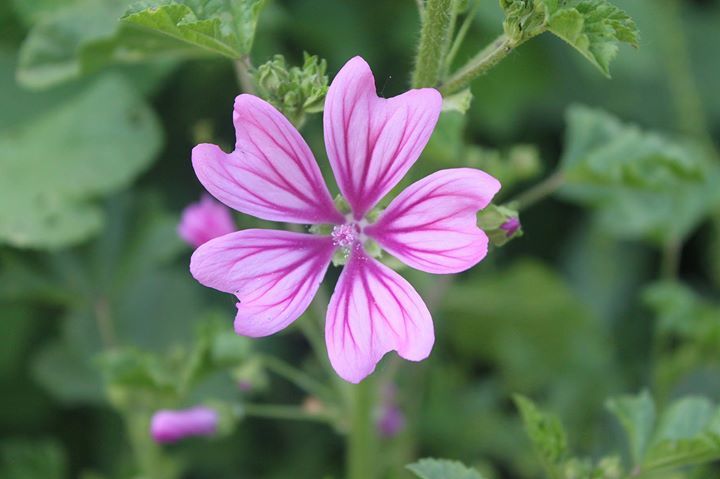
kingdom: Plantae
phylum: Tracheophyta
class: Magnoliopsida
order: Malvales
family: Malvaceae
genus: Malva
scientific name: Malva multiflora
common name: Cheeseweed
